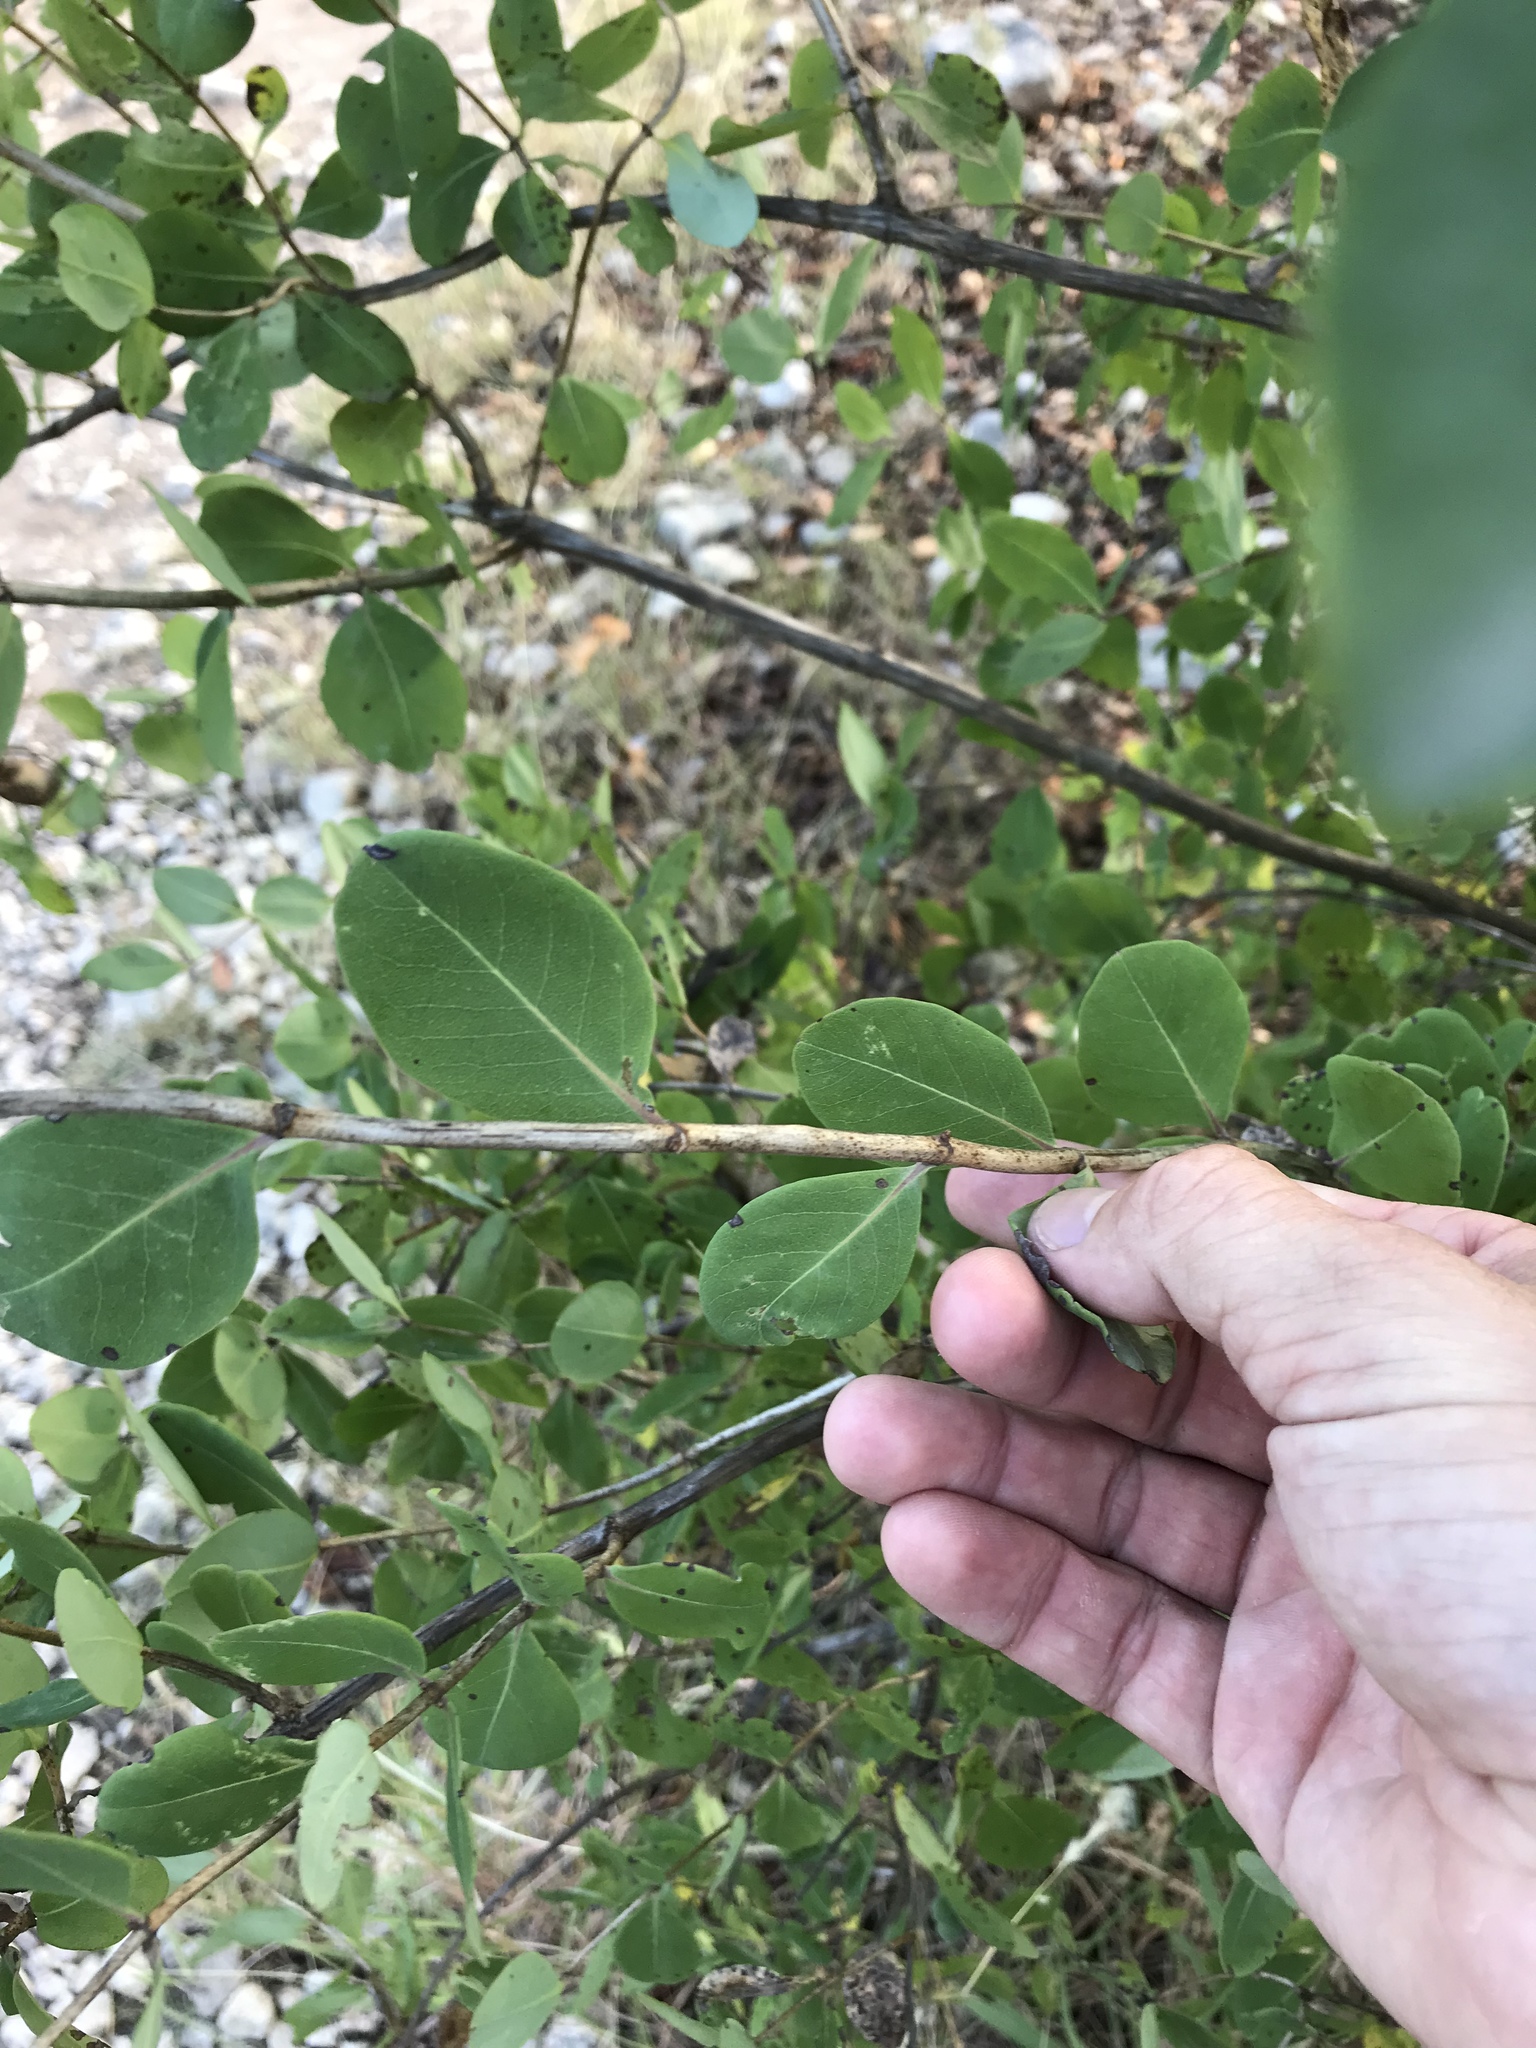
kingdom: Plantae
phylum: Tracheophyta
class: Magnoliopsida
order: Dipsacales
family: Caprifoliaceae
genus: Lonicera
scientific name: Lonicera albiflora
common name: White honeysuckle
